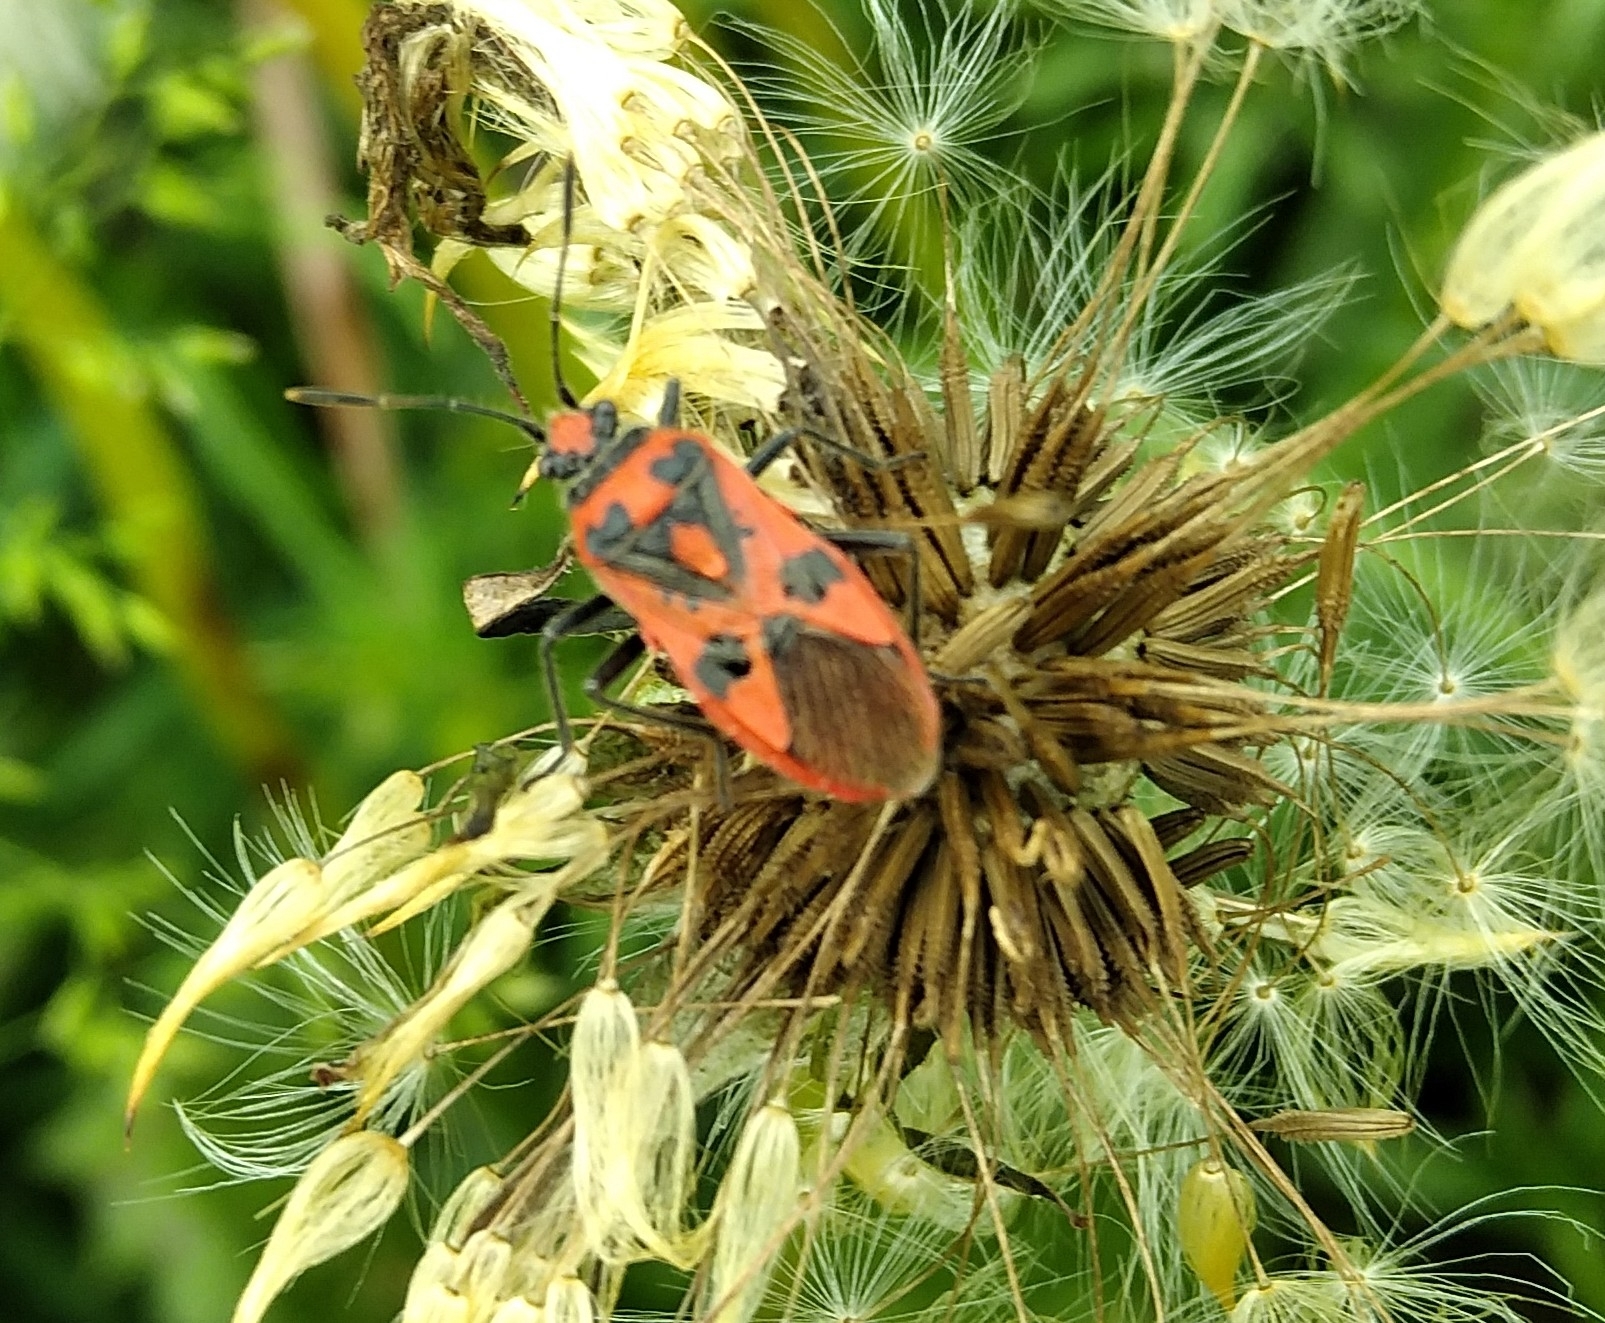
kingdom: Animalia
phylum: Arthropoda
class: Insecta
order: Hemiptera
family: Rhopalidae
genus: Corizus
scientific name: Corizus hyoscyami
